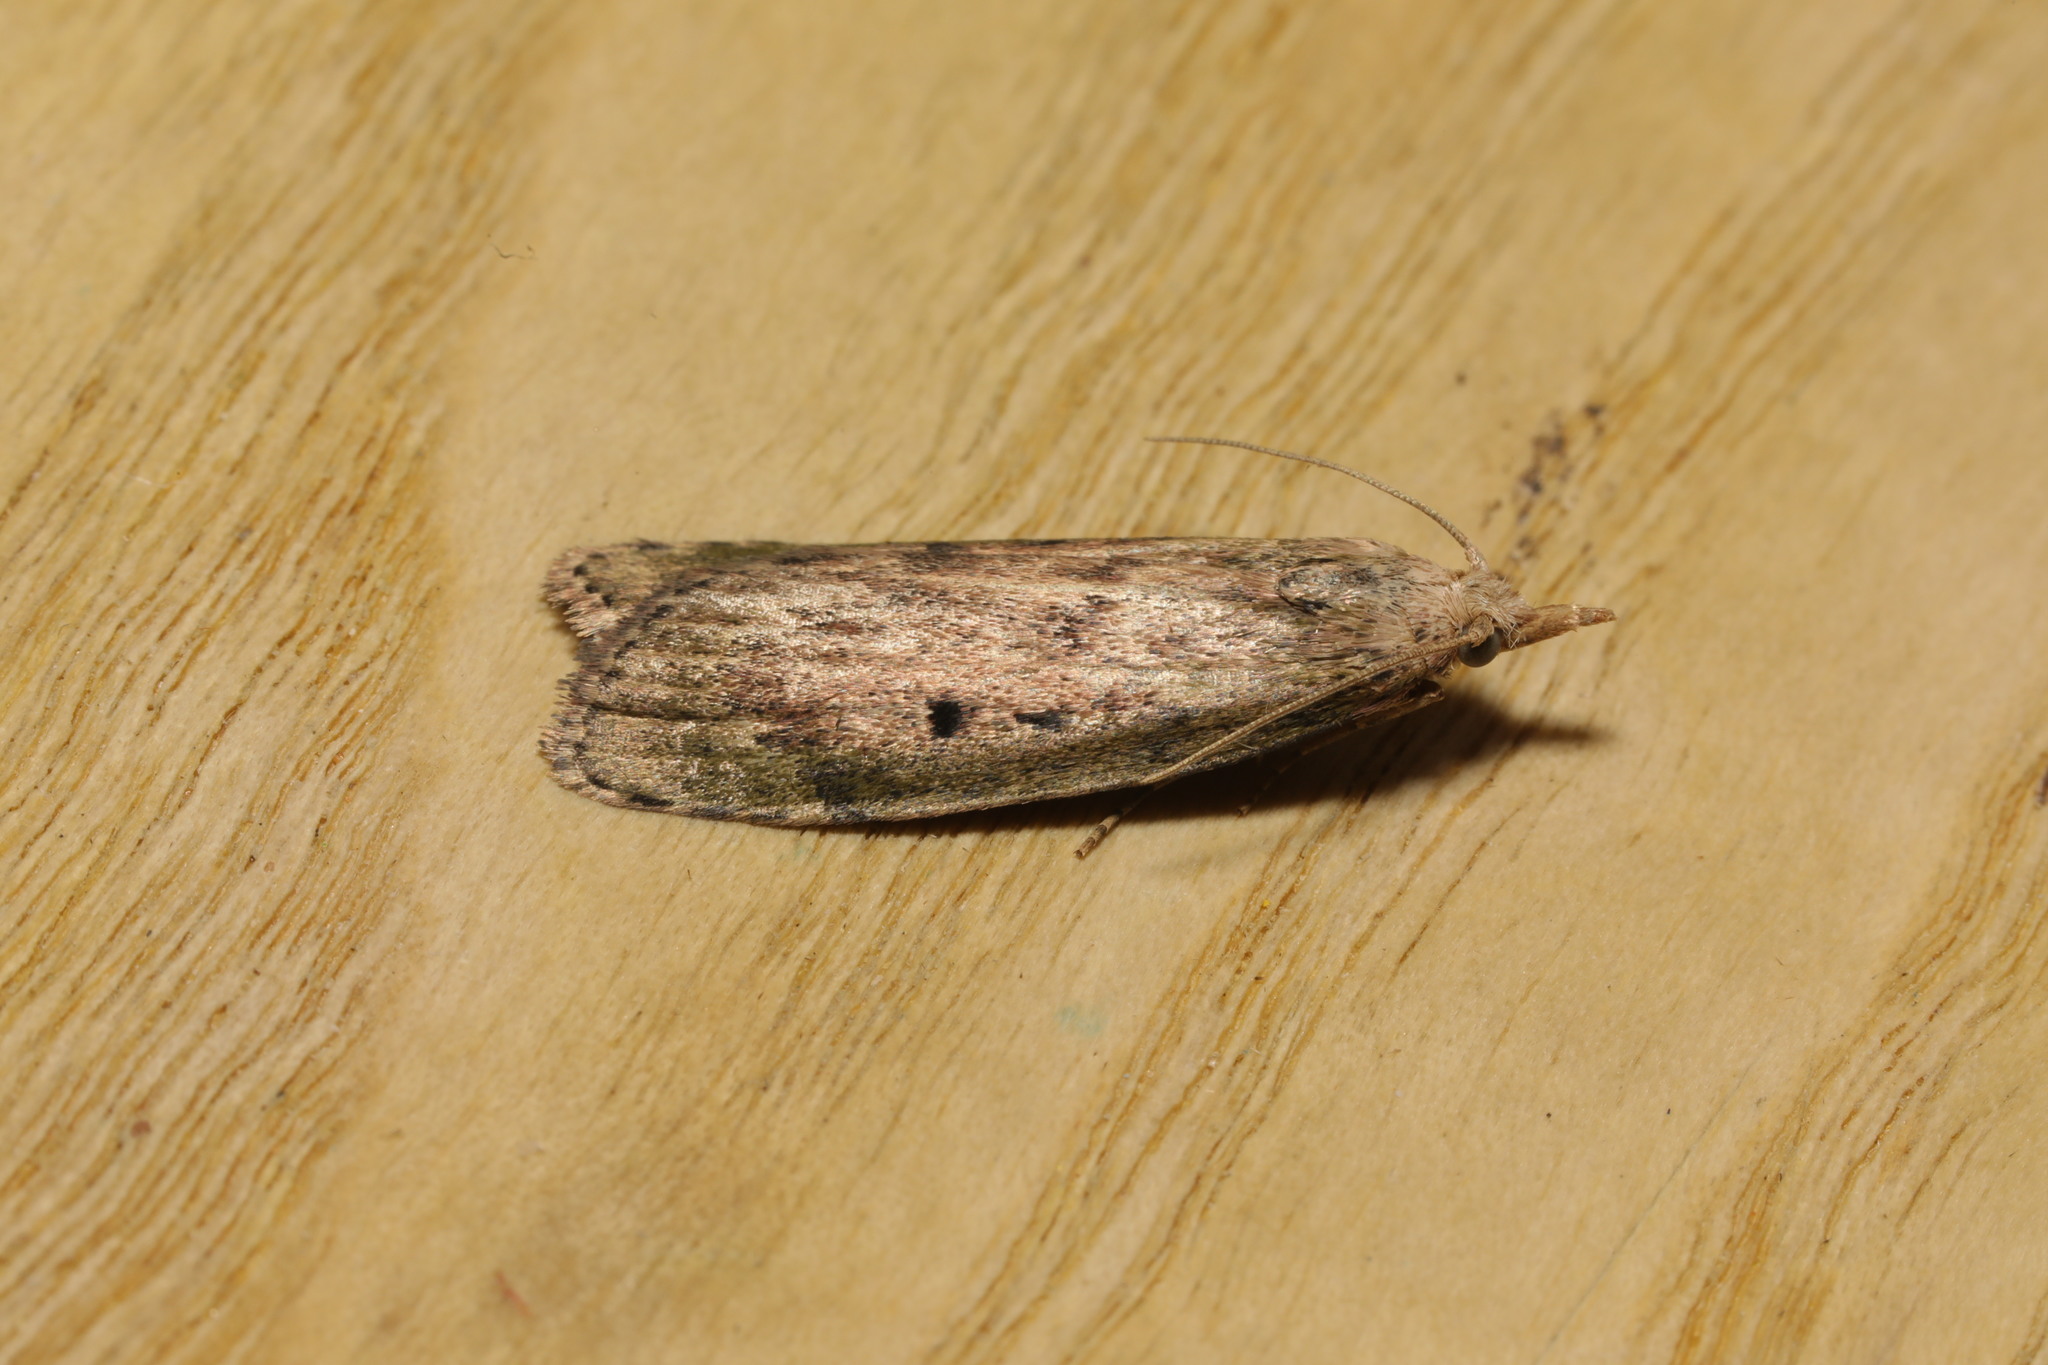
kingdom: Animalia
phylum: Arthropoda
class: Insecta
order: Lepidoptera
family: Pyralidae
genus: Aphomia
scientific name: Aphomia sociella
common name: Bee moth
